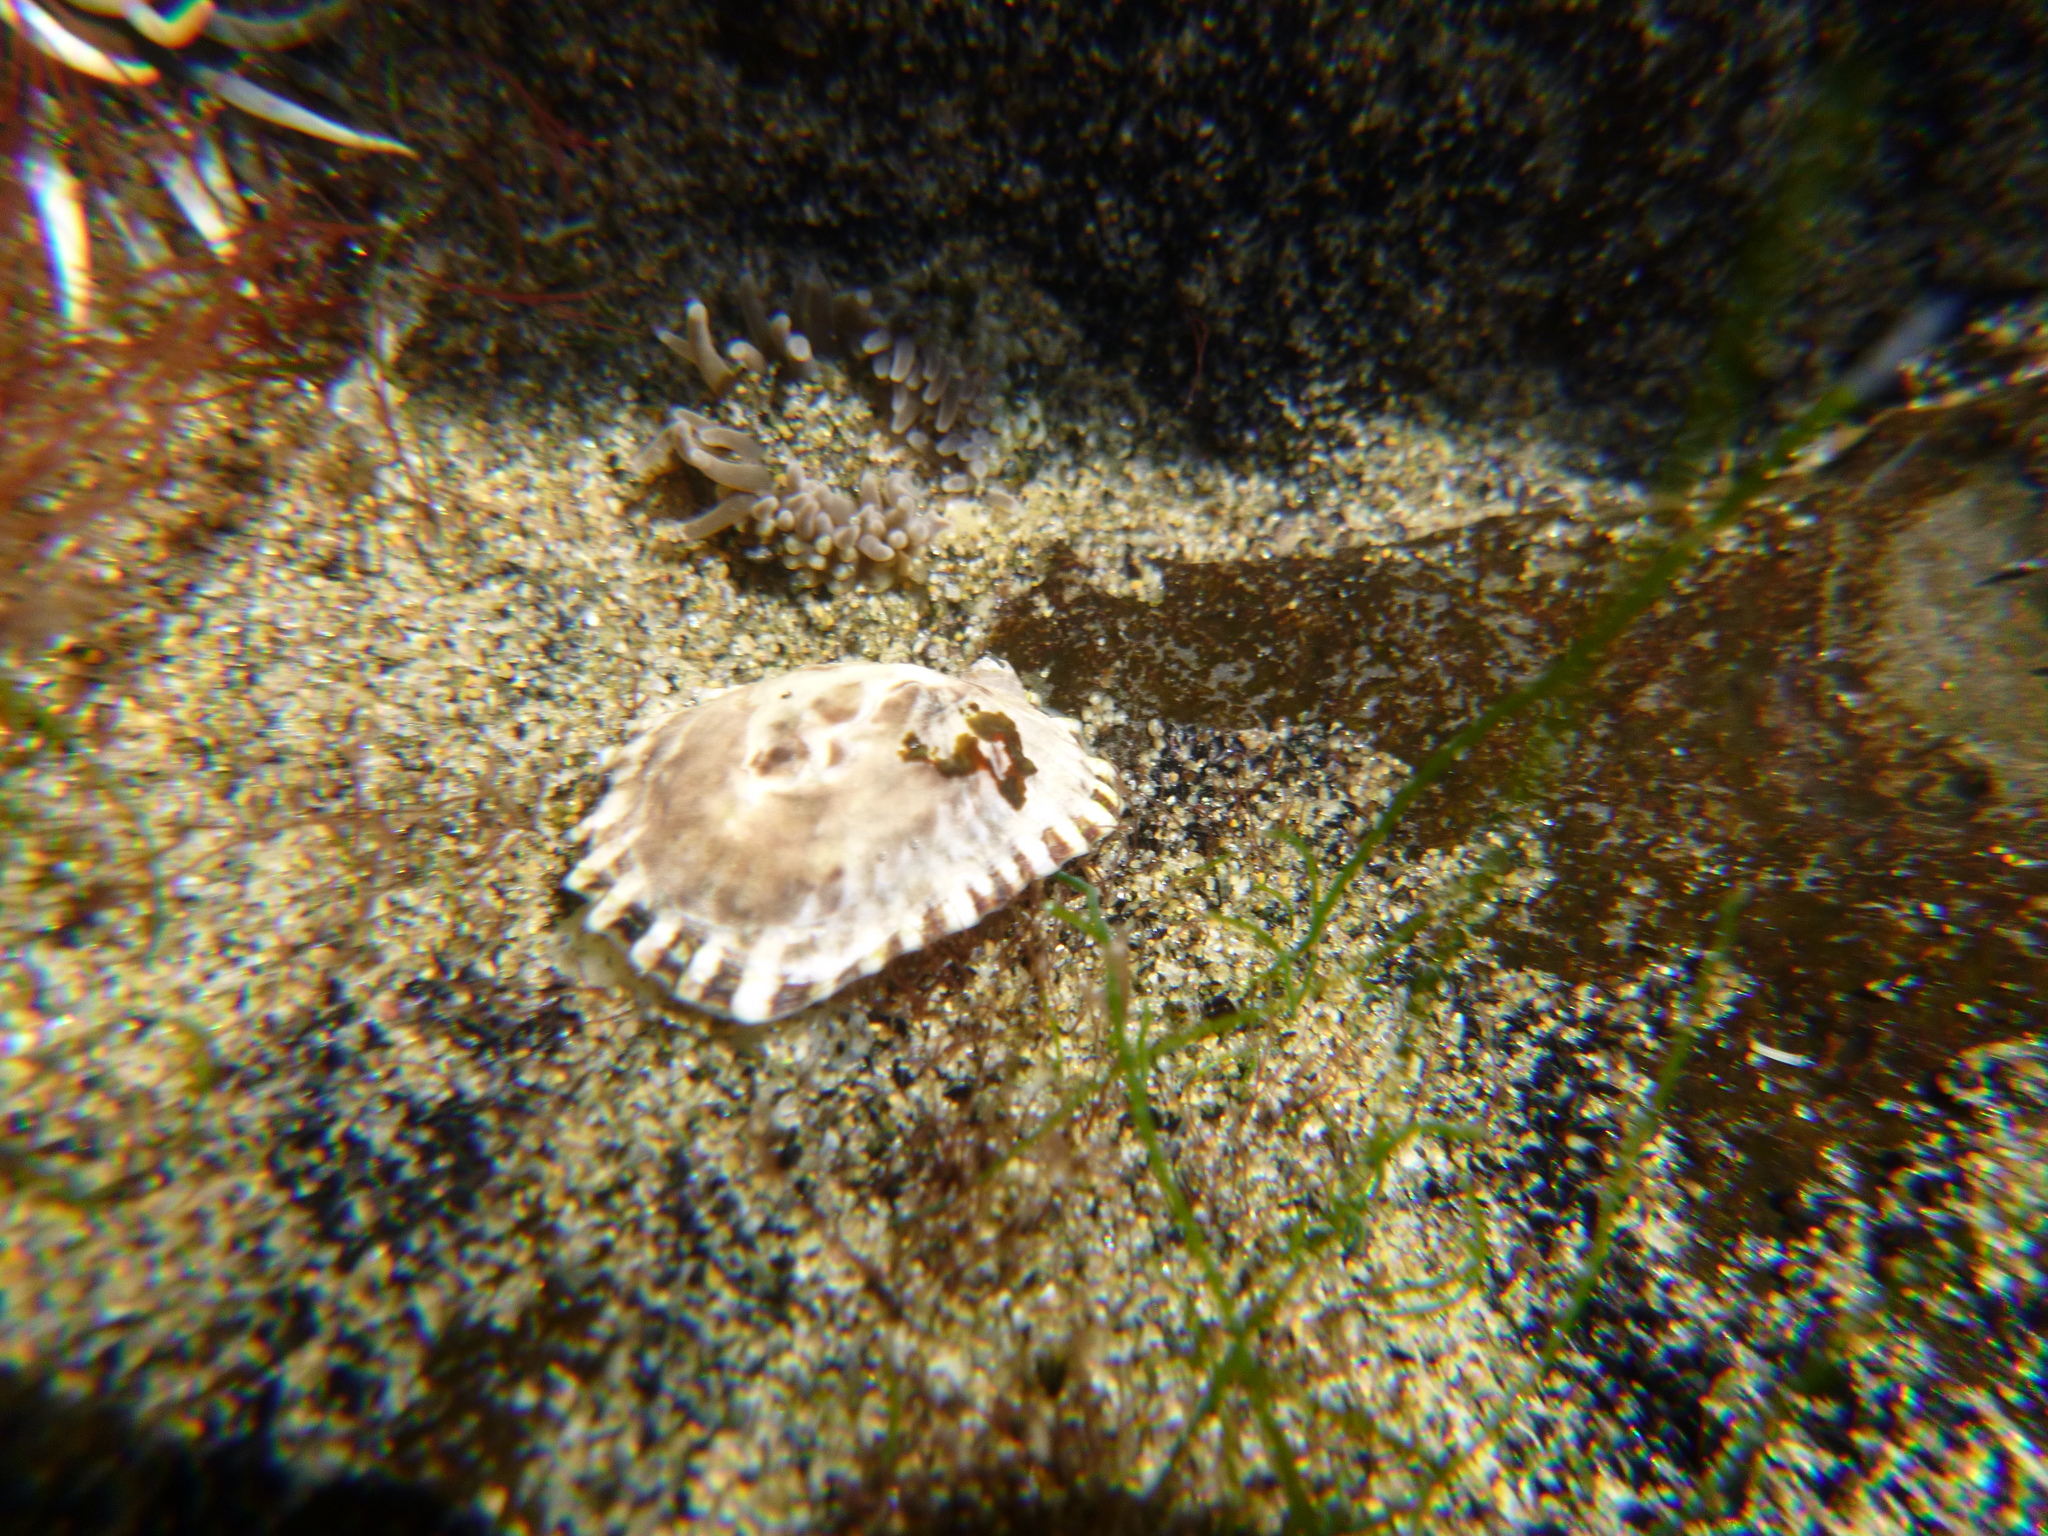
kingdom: Animalia
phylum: Mollusca
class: Gastropoda
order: Siphonariida
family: Siphonariidae
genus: Siphonaria
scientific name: Siphonaria australis
